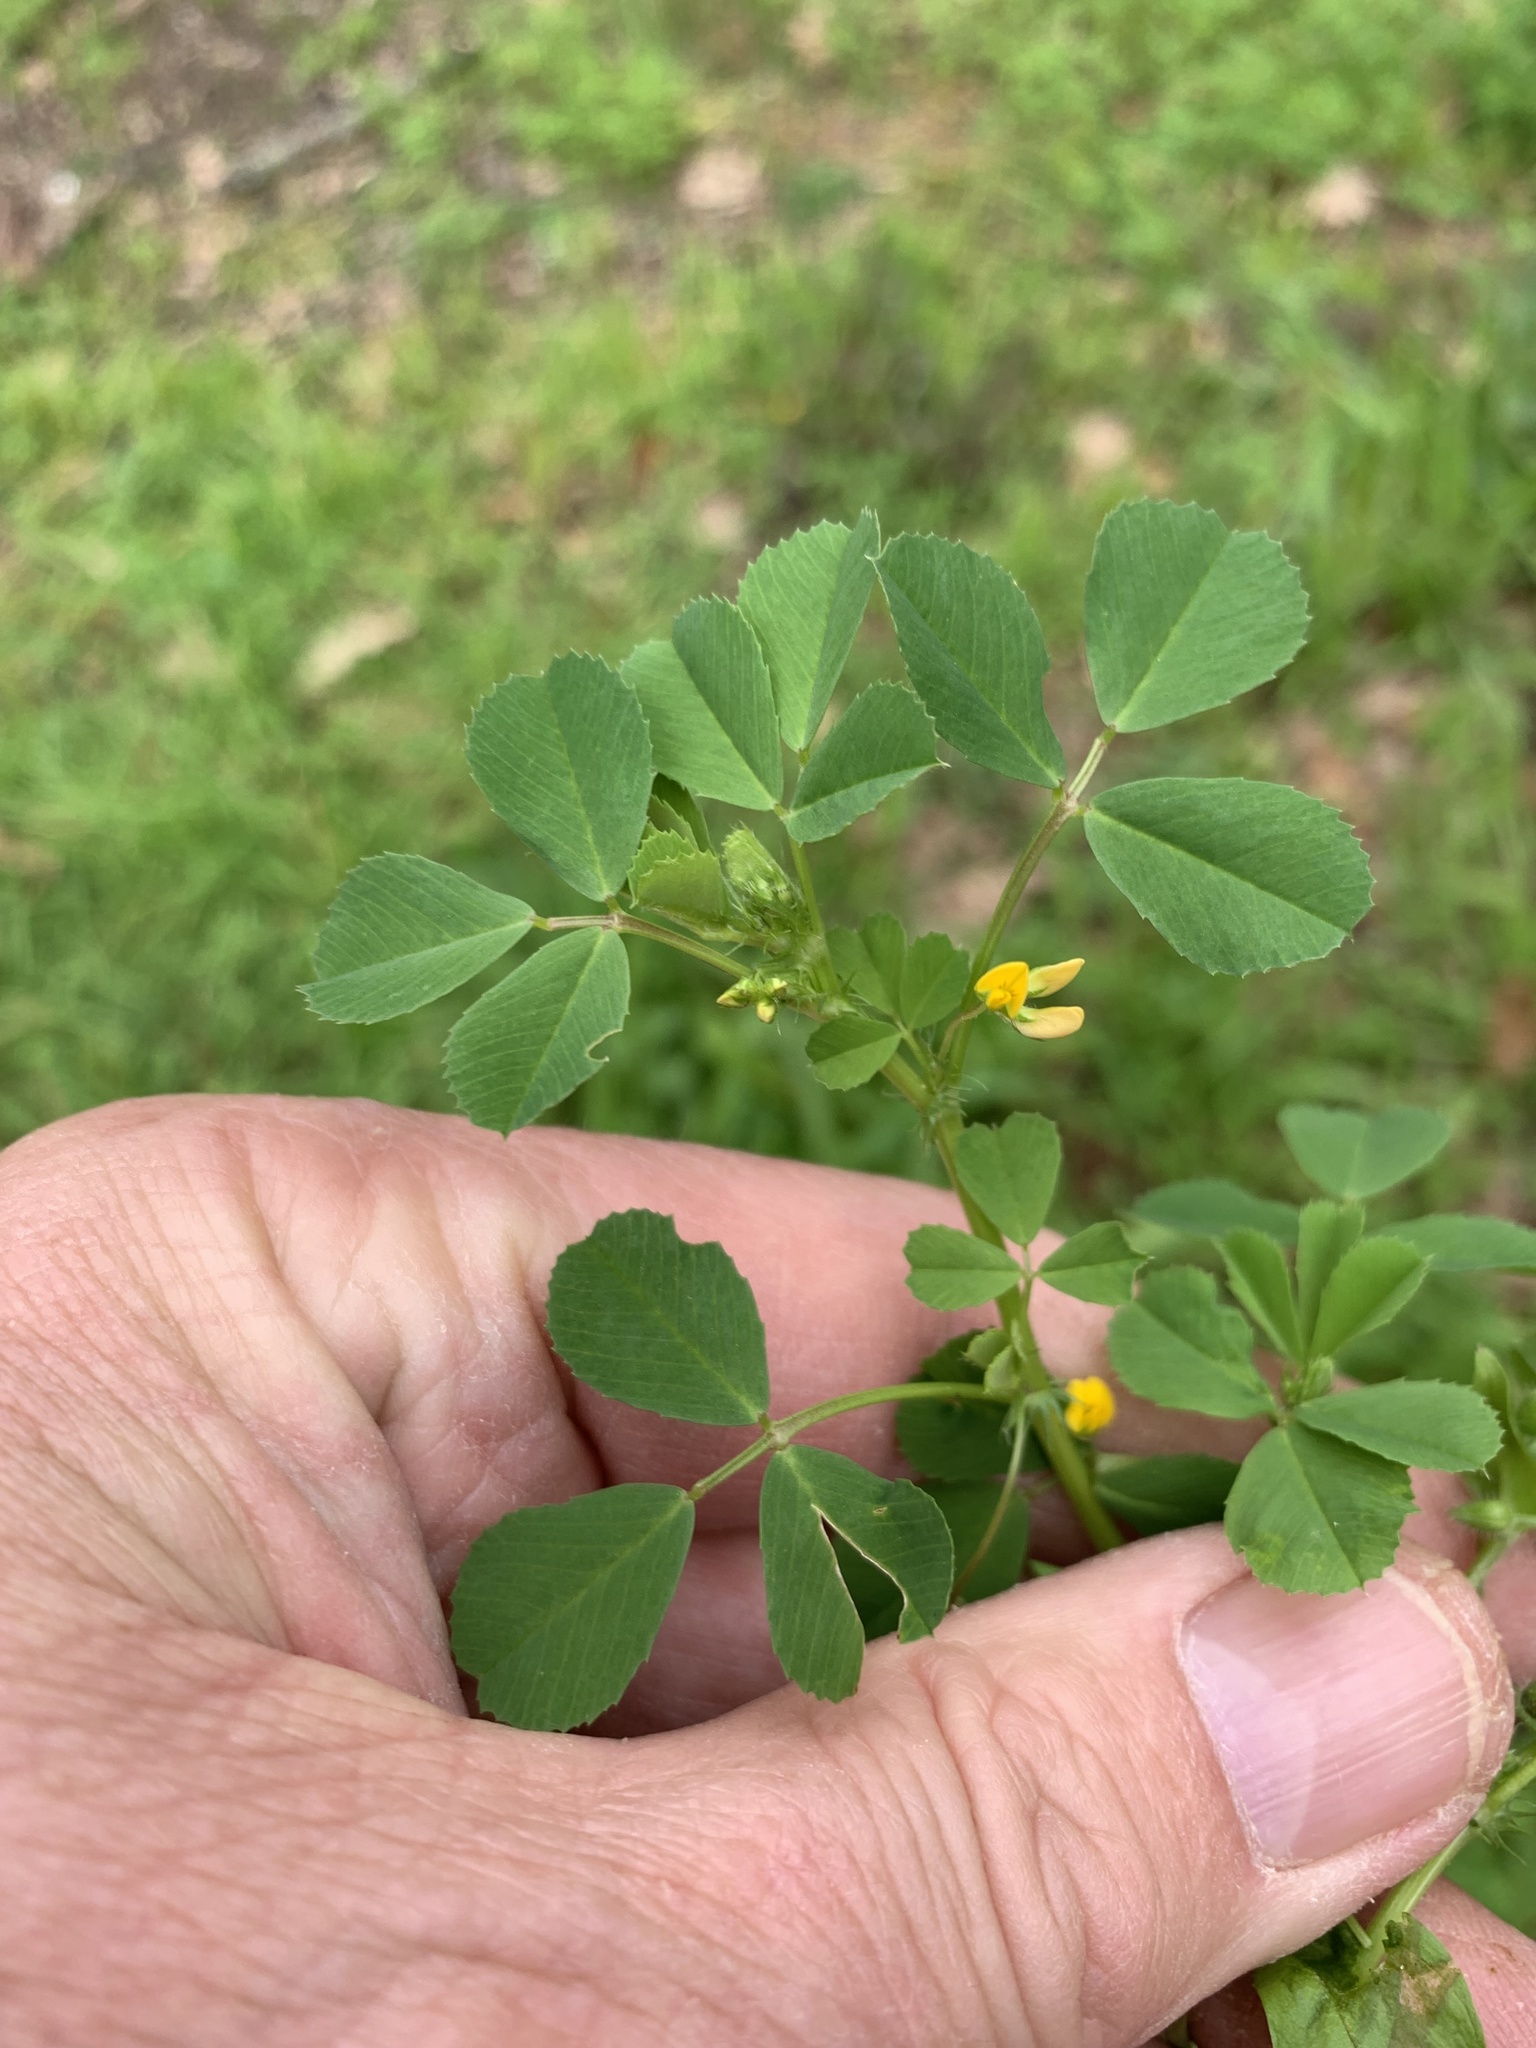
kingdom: Plantae
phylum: Tracheophyta
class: Magnoliopsida
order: Fabales
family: Fabaceae
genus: Medicago
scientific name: Medicago polymorpha
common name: Burclover
